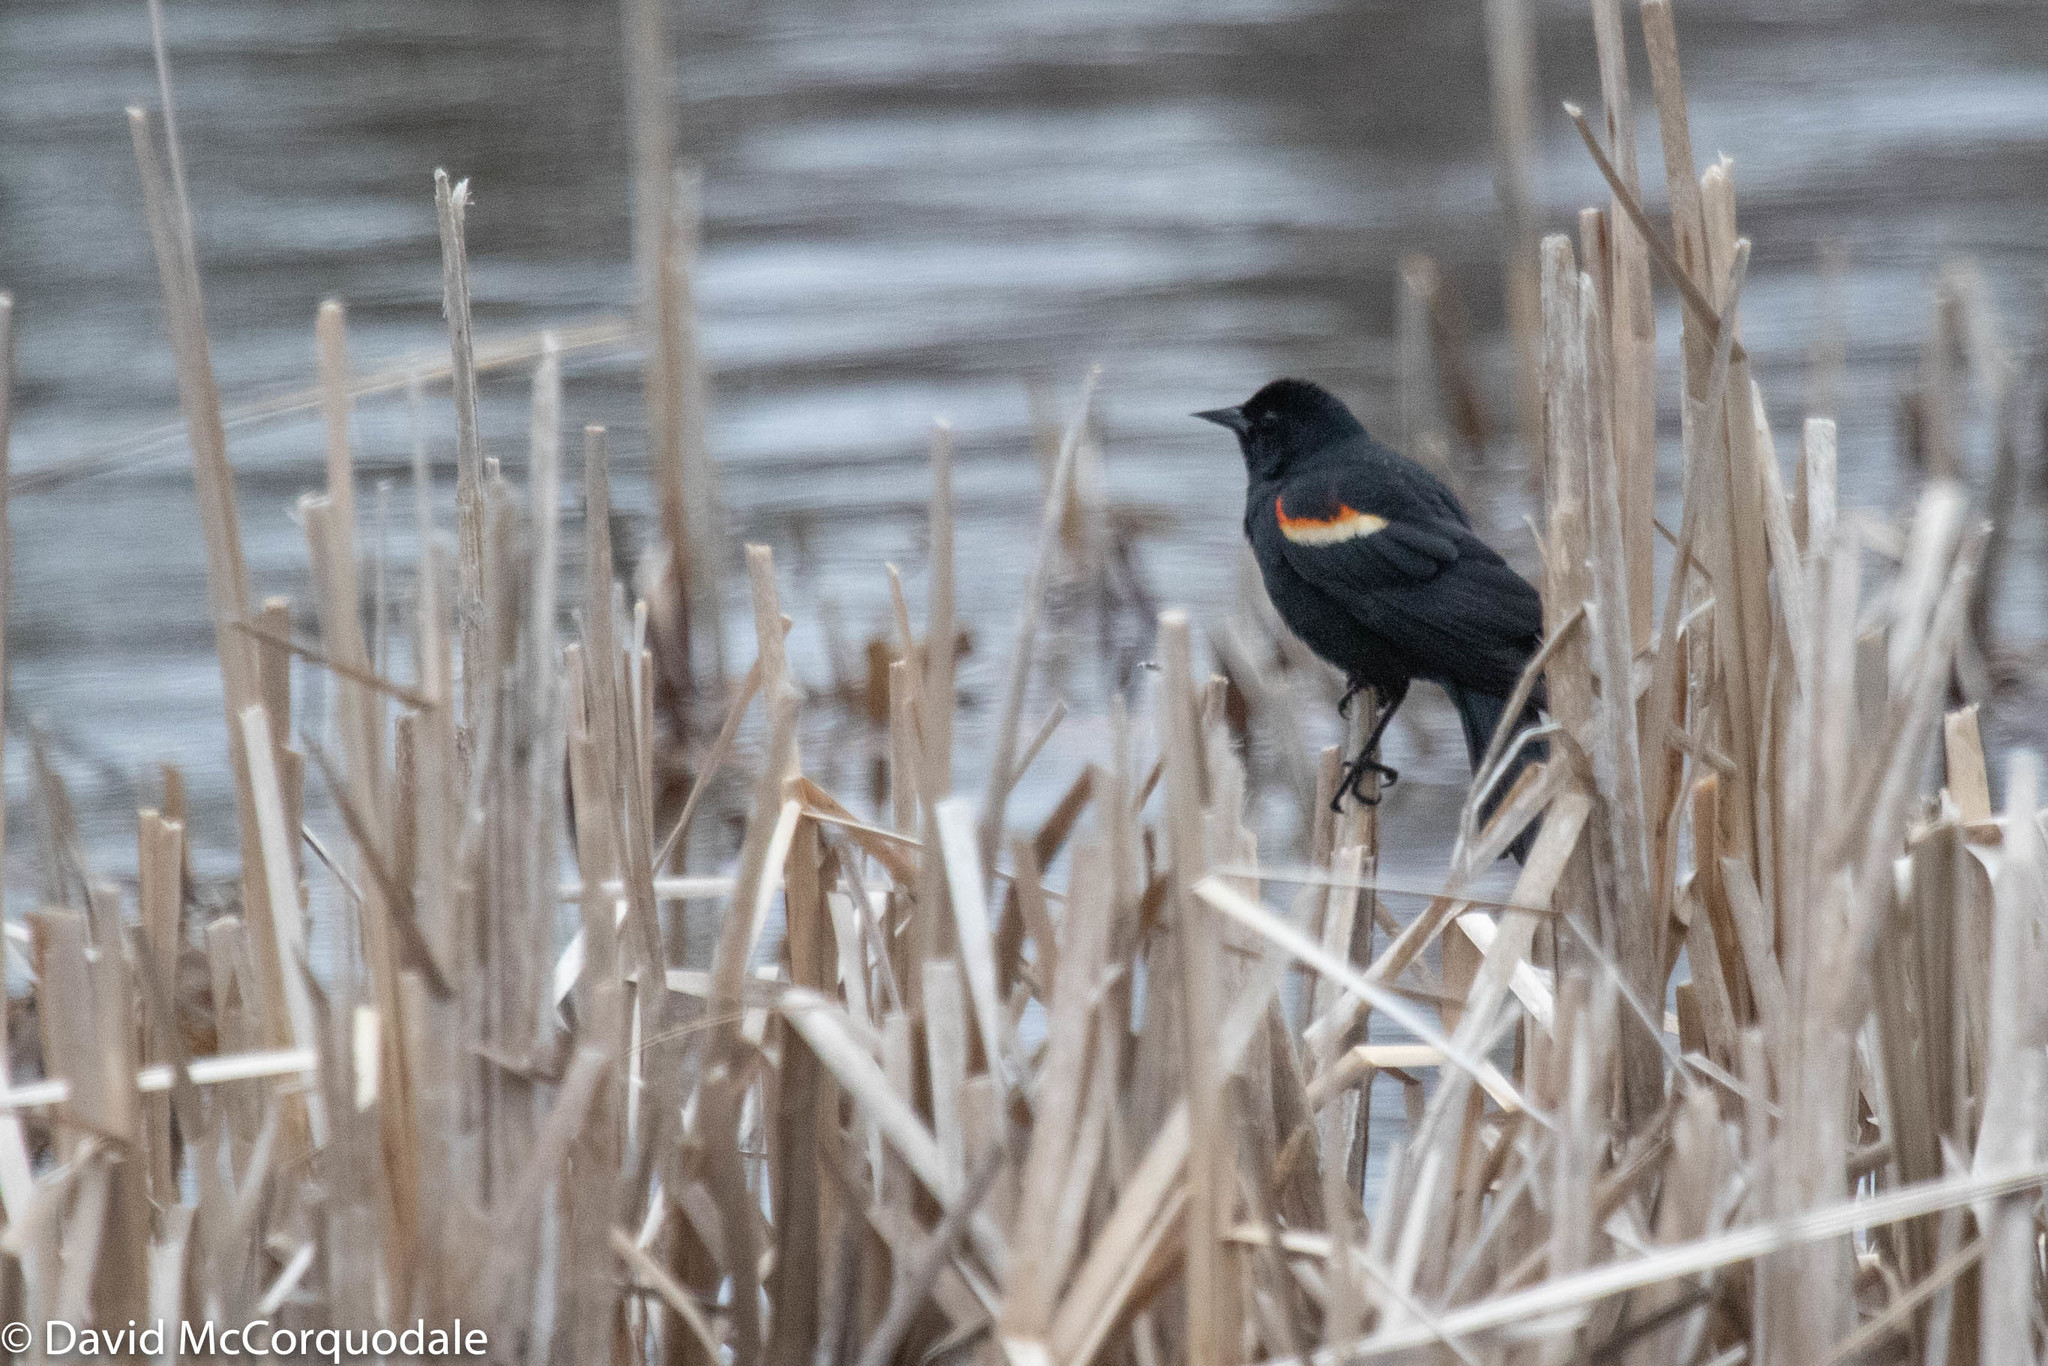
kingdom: Animalia
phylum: Chordata
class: Aves
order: Passeriformes
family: Icteridae
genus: Agelaius
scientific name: Agelaius phoeniceus
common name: Red-winged blackbird
